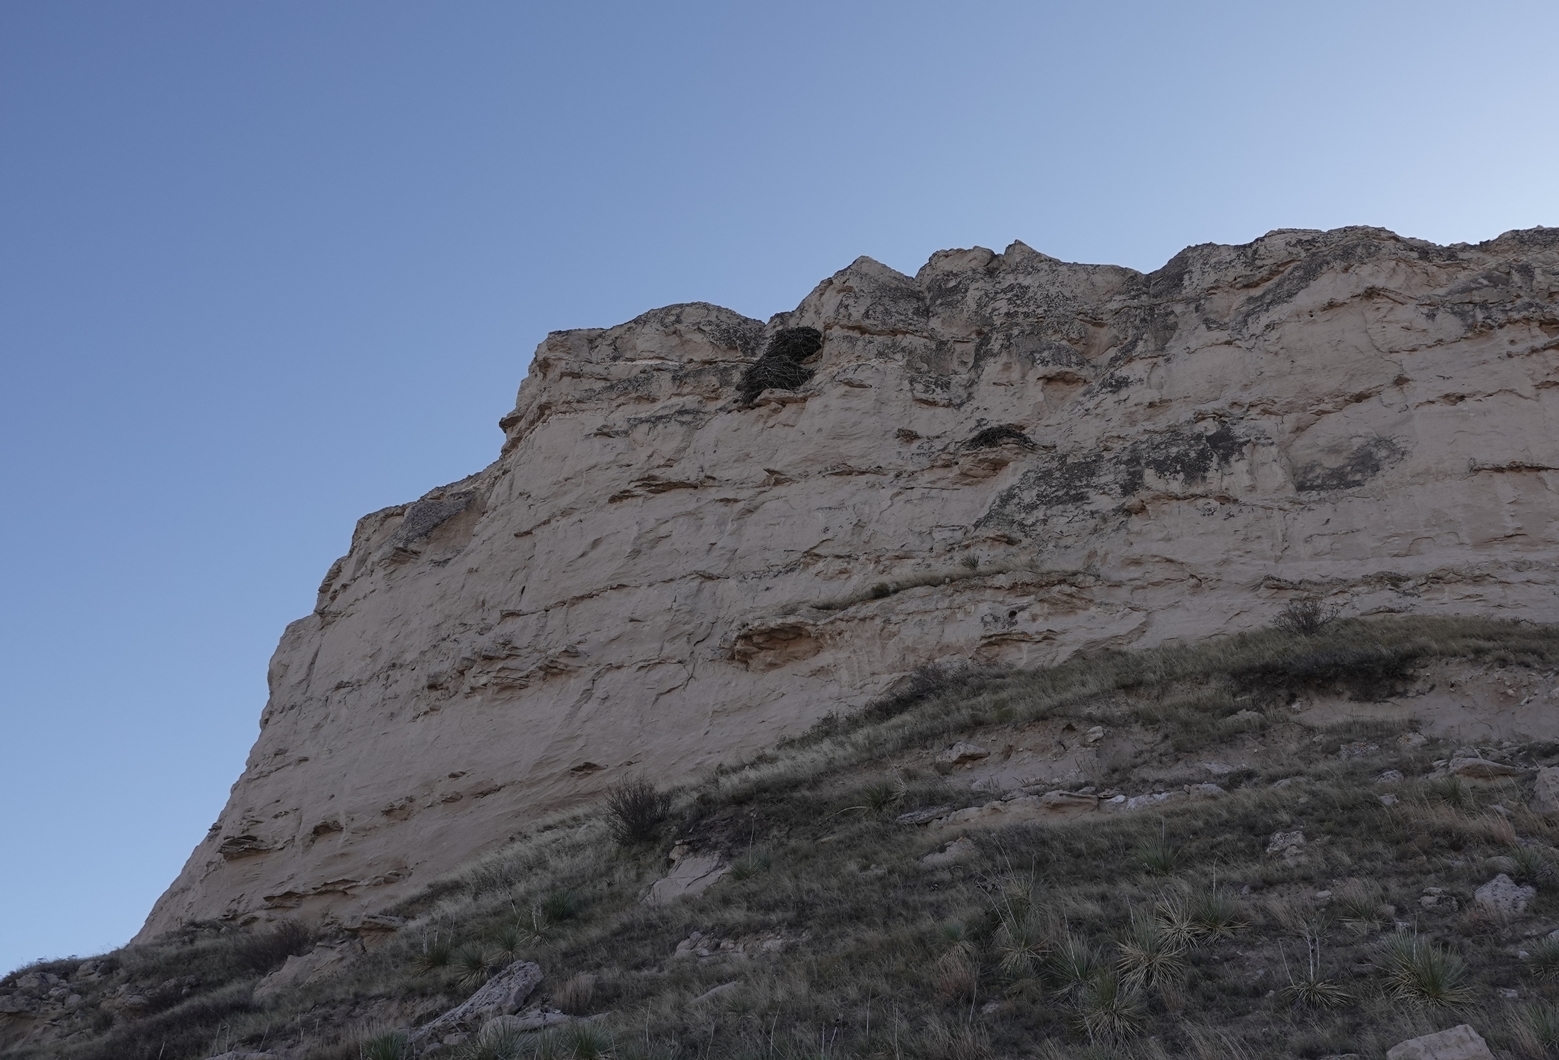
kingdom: Animalia
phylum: Chordata
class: Aves
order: Accipitriformes
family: Accipitridae
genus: Aquila
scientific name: Aquila chrysaetos
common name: Golden eagle
